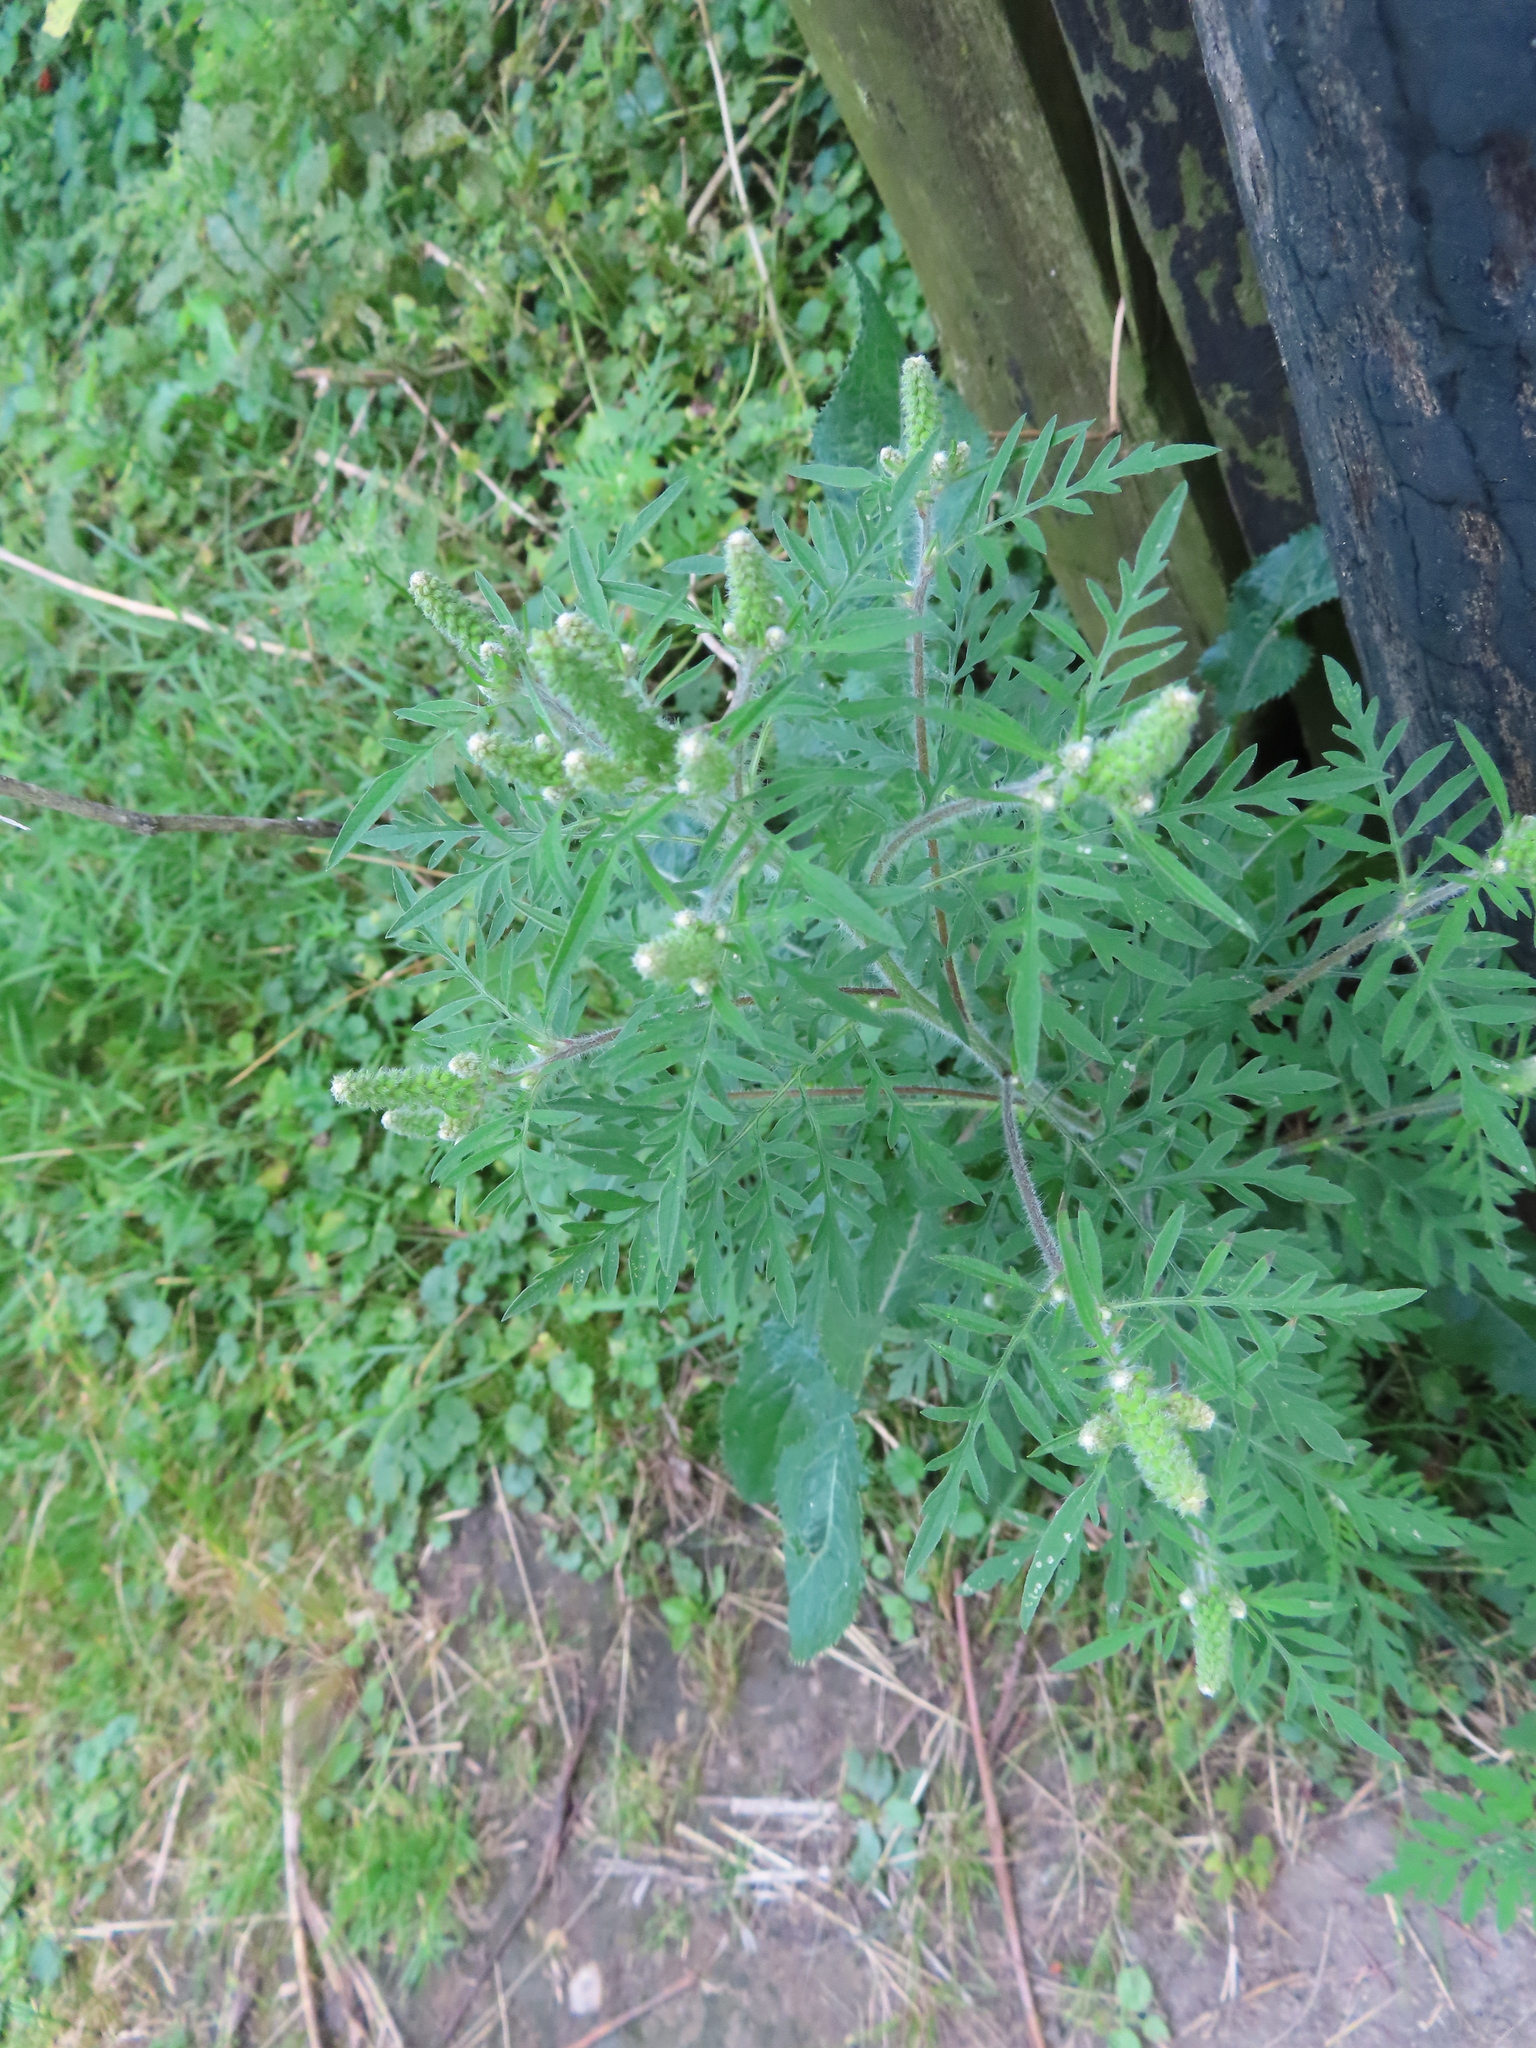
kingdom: Plantae
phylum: Tracheophyta
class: Magnoliopsida
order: Asterales
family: Asteraceae
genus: Ambrosia
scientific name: Ambrosia artemisiifolia
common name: Annual ragweed
